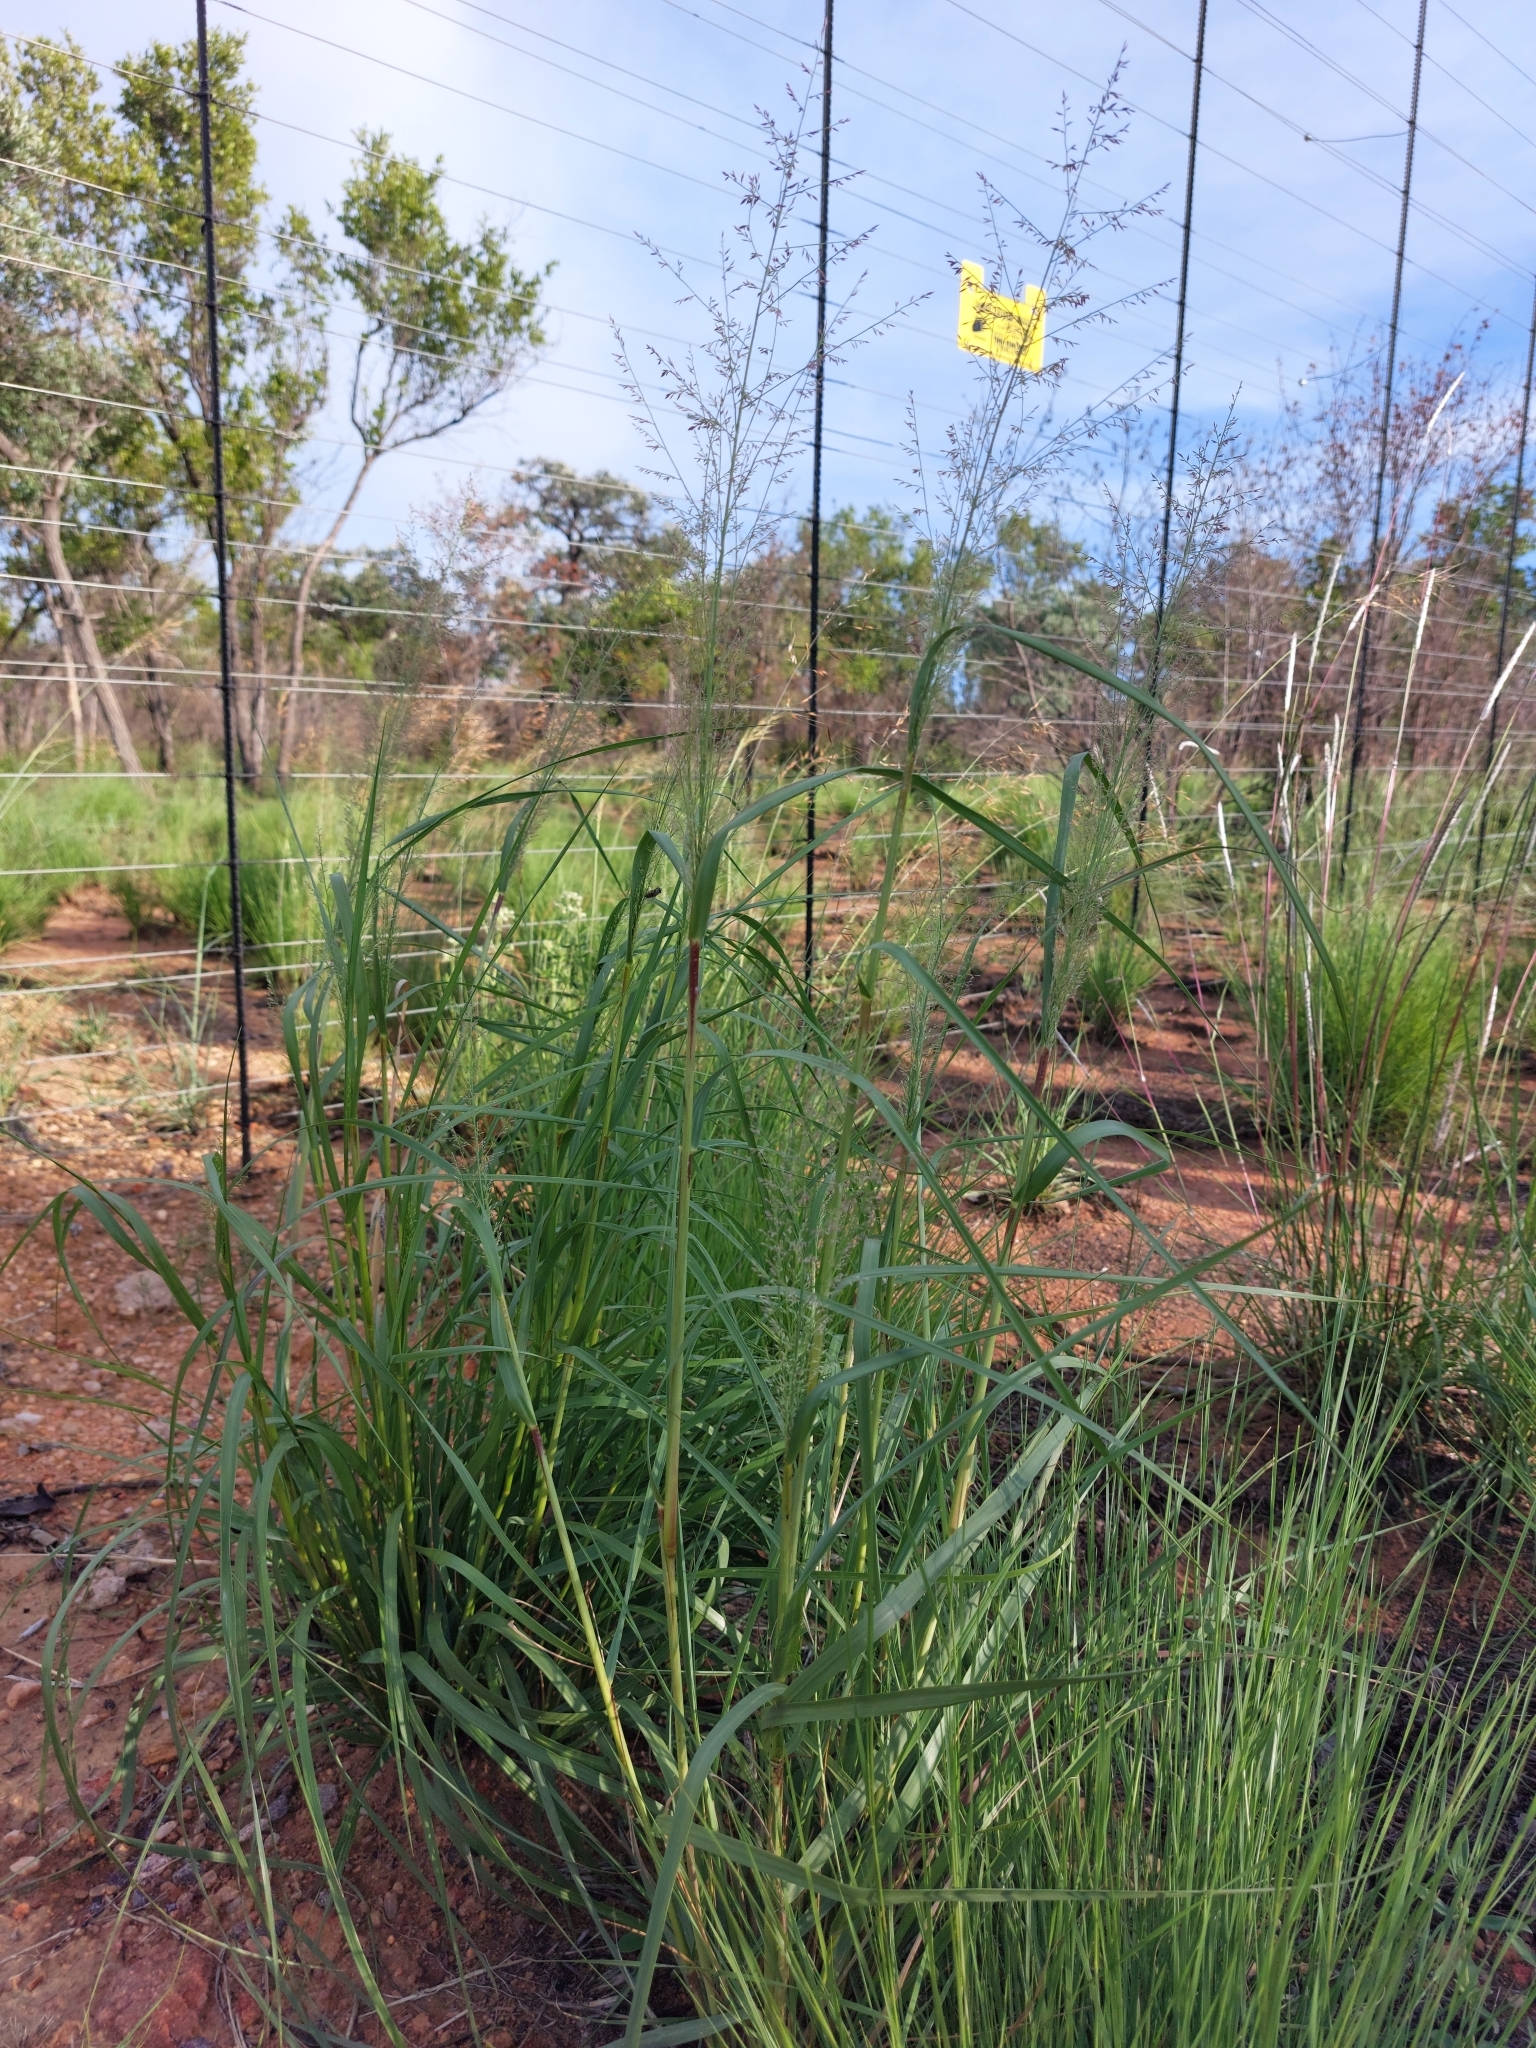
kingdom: Plantae
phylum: Tracheophyta
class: Liliopsida
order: Poales
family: Poaceae
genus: Eragrostis
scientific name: Eragrostis gummiflua
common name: Gum grass
